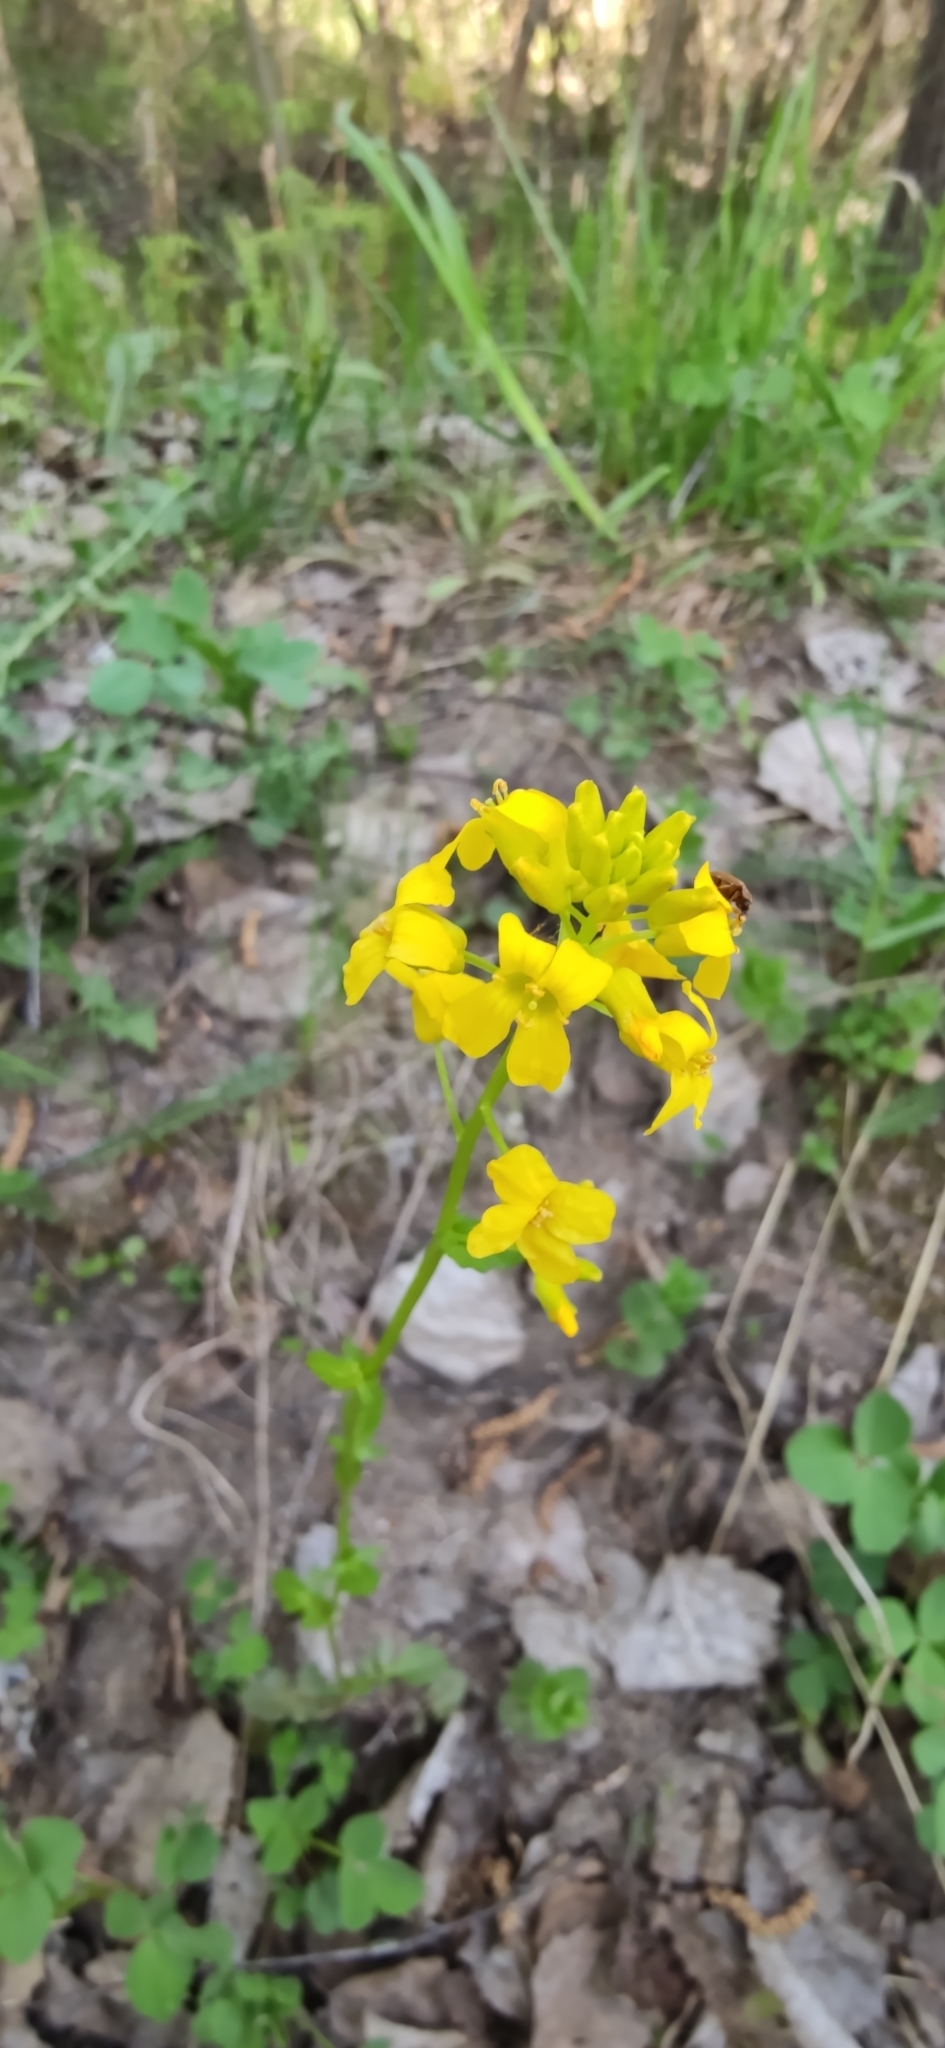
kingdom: Plantae
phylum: Tracheophyta
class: Magnoliopsida
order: Brassicales
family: Brassicaceae
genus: Barbarea
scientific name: Barbarea vulgaris
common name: Cressy-greens
